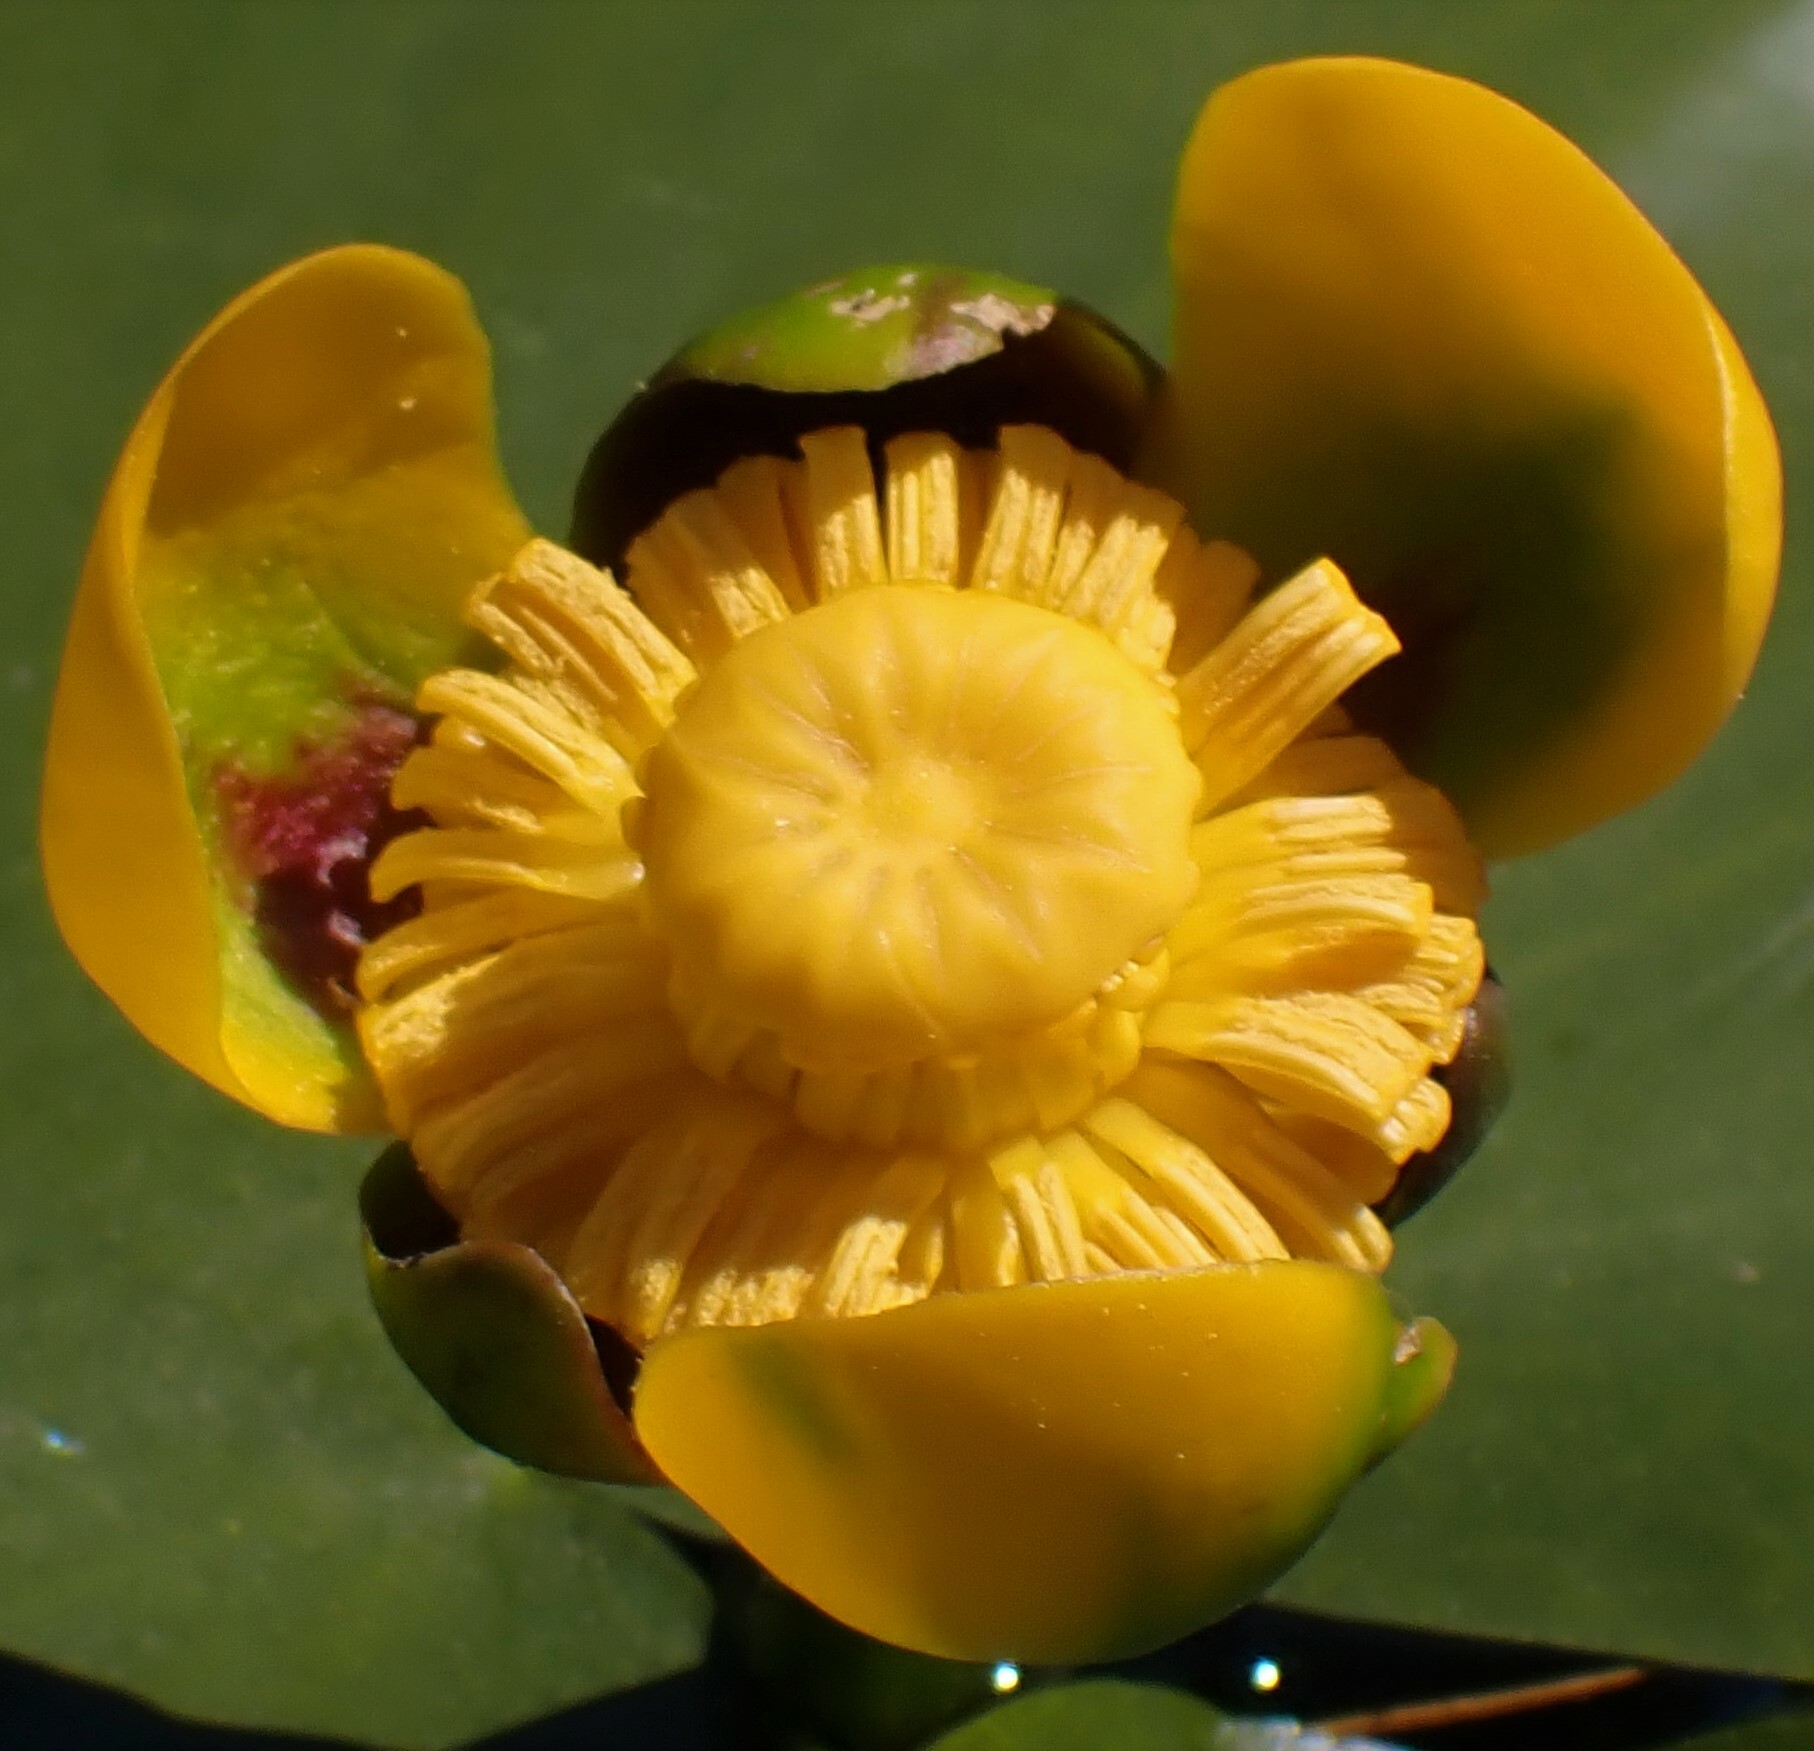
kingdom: Plantae
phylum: Tracheophyta
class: Magnoliopsida
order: Nymphaeales
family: Nymphaeaceae
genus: Nuphar
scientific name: Nuphar variegata
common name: Beaver-root
